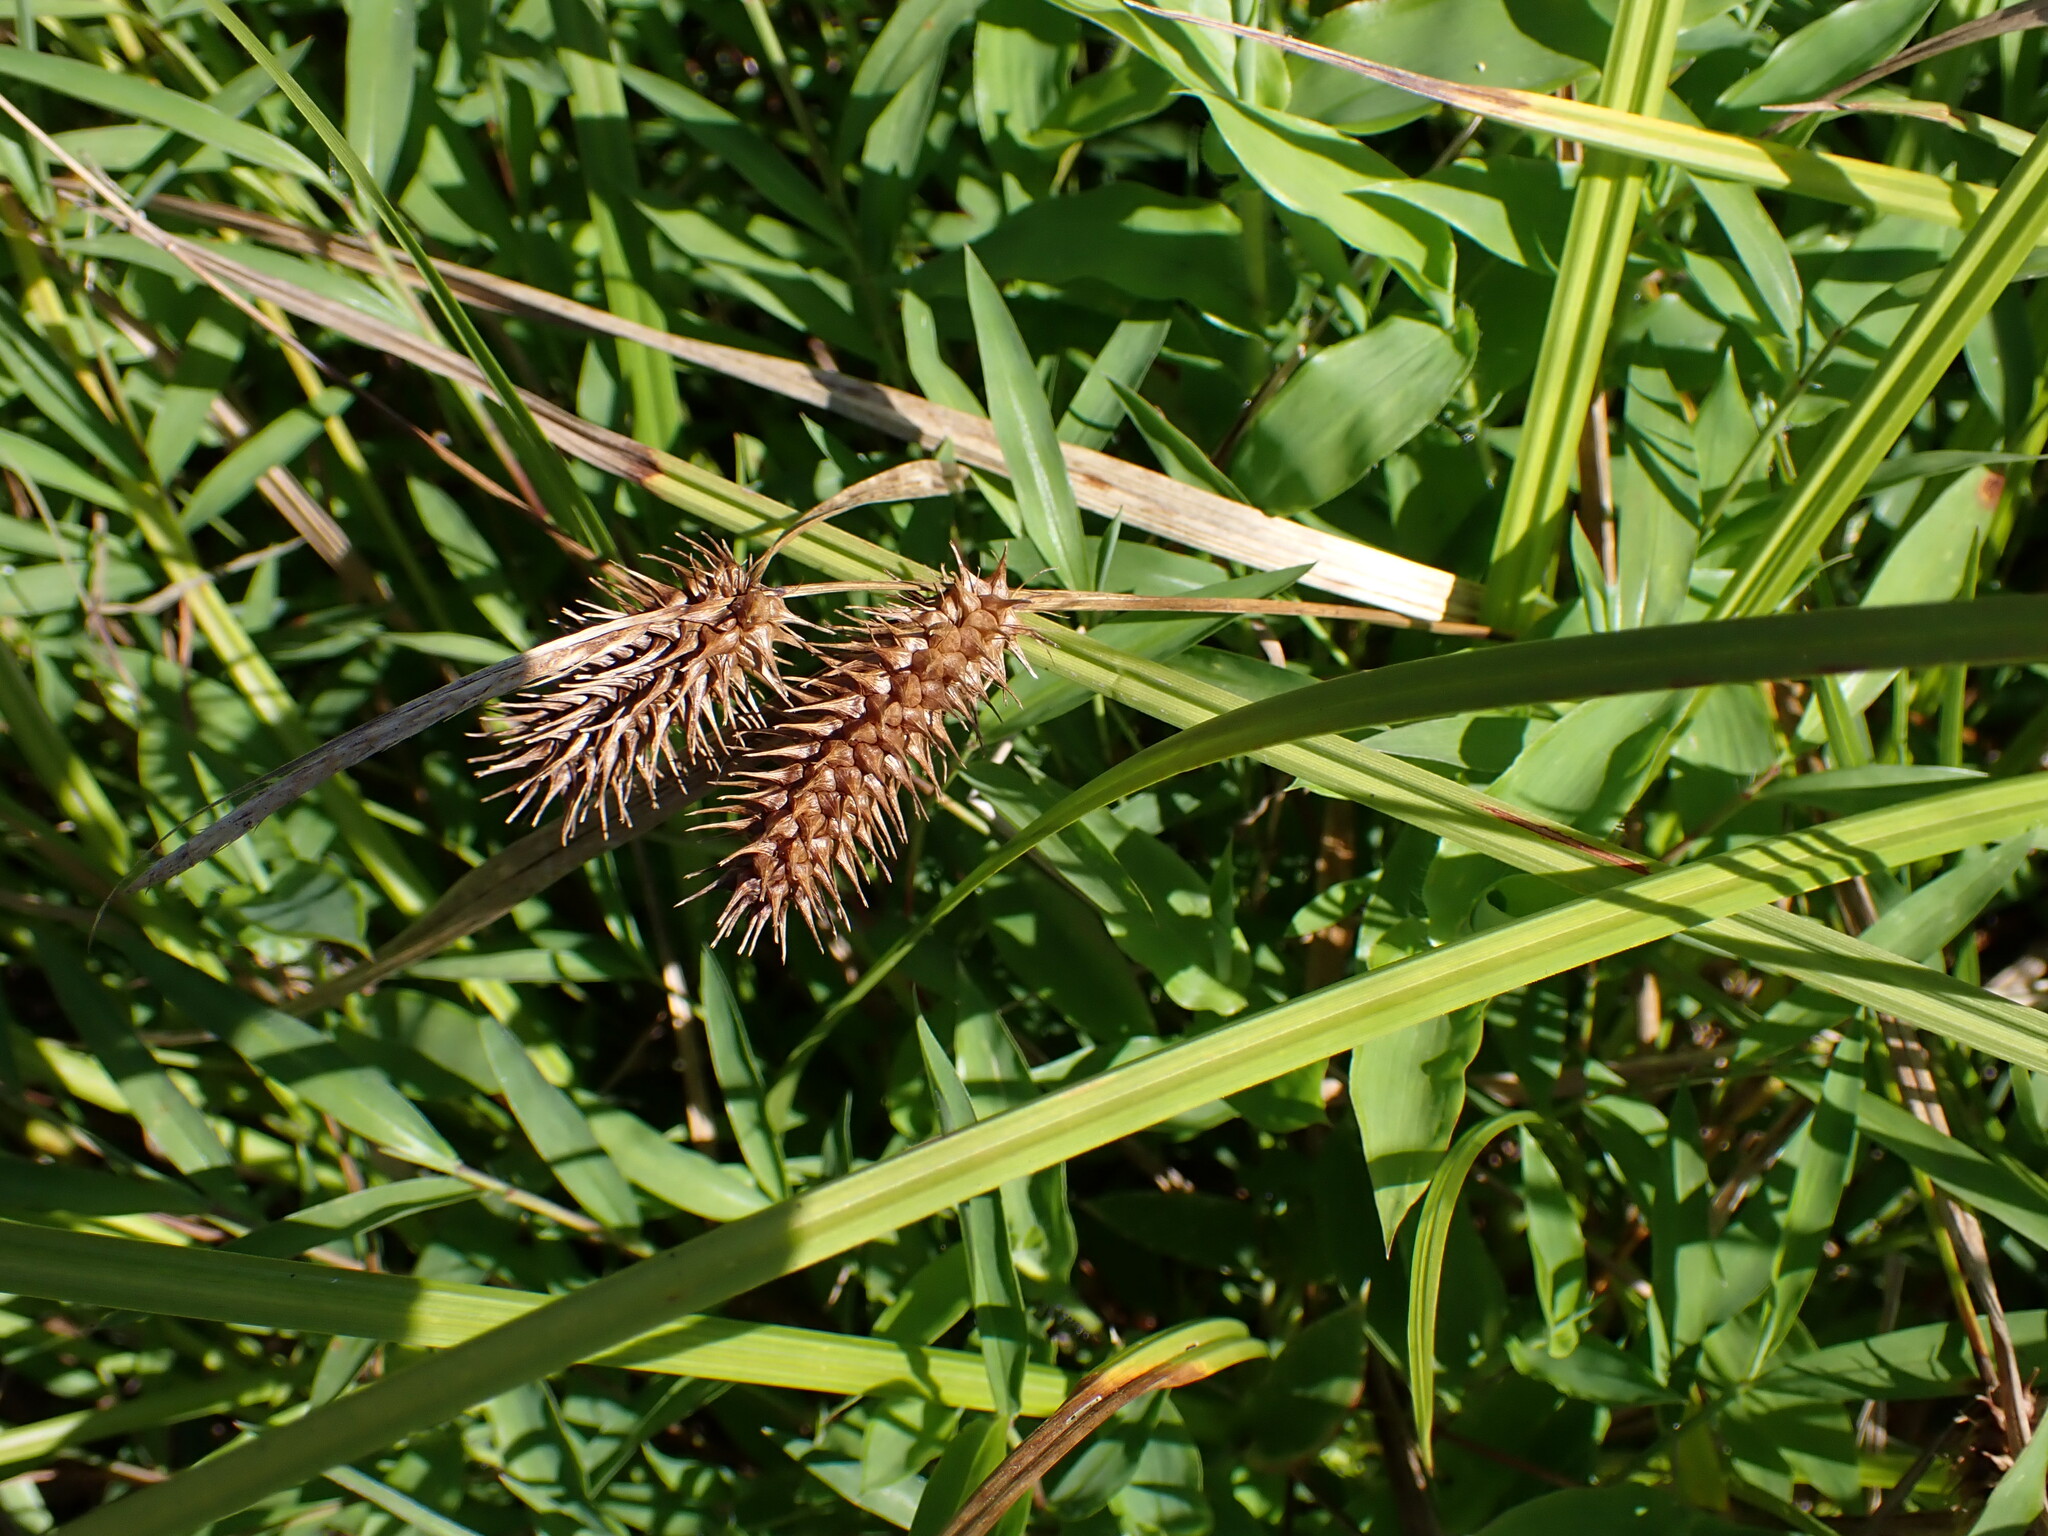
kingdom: Plantae
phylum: Tracheophyta
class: Liliopsida
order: Poales
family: Cyperaceae
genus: Carex
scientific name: Carex lurida
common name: Sallow sedge
